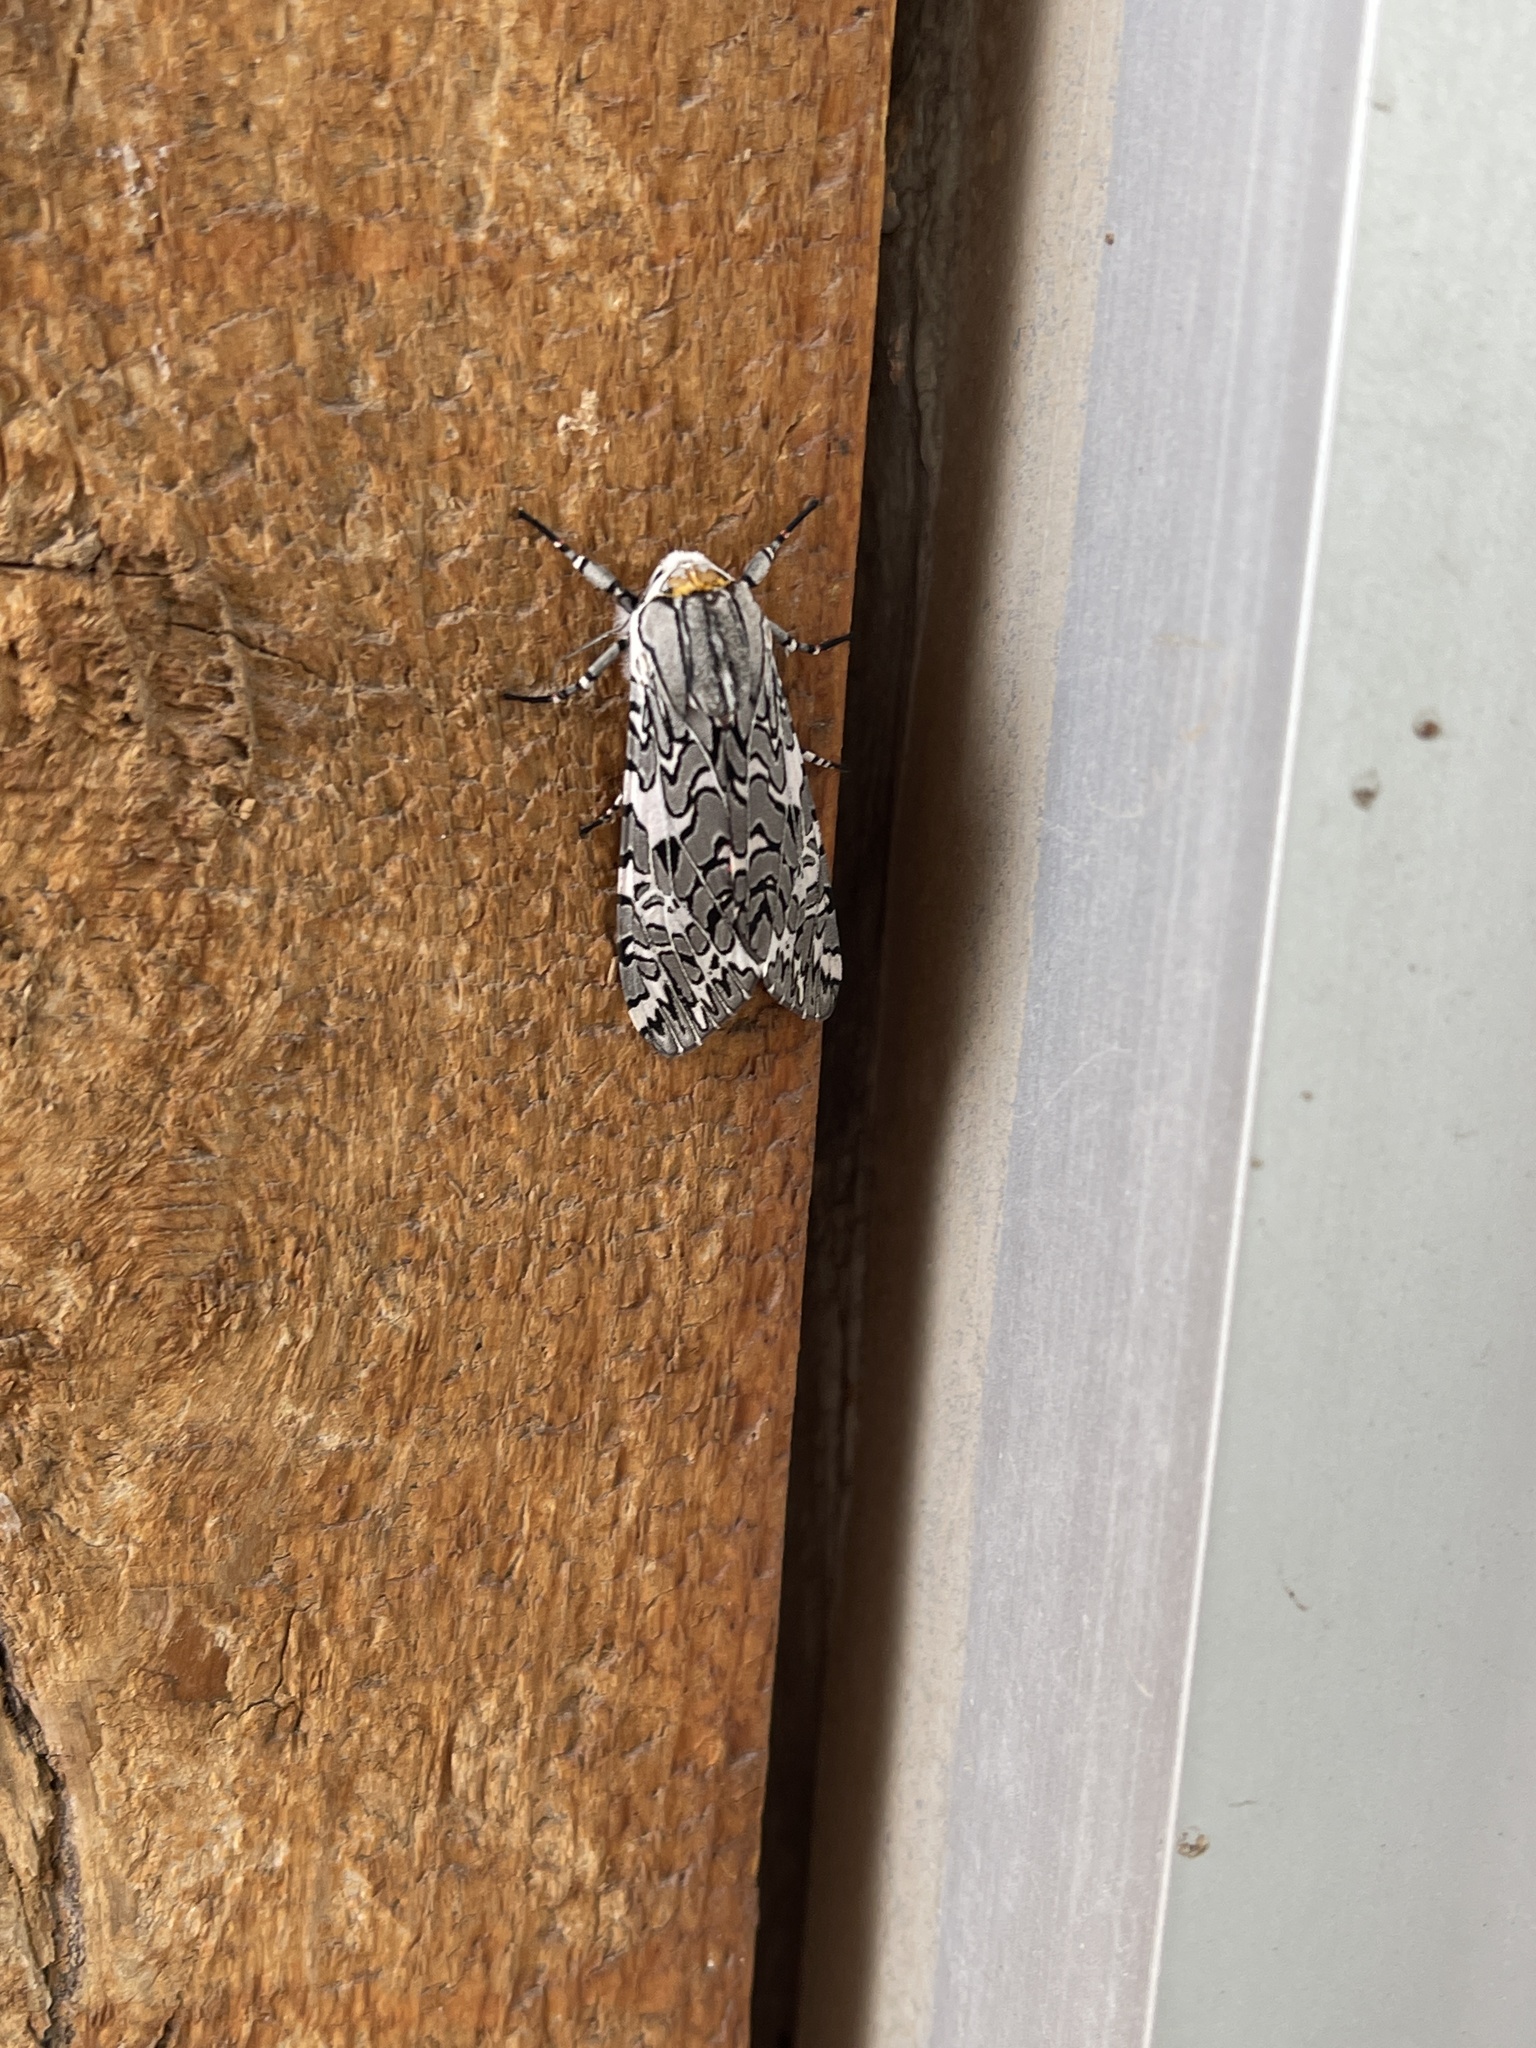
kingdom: Animalia
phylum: Arthropoda
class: Insecta
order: Lepidoptera
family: Erebidae
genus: Arachnis
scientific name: Arachnis picta
